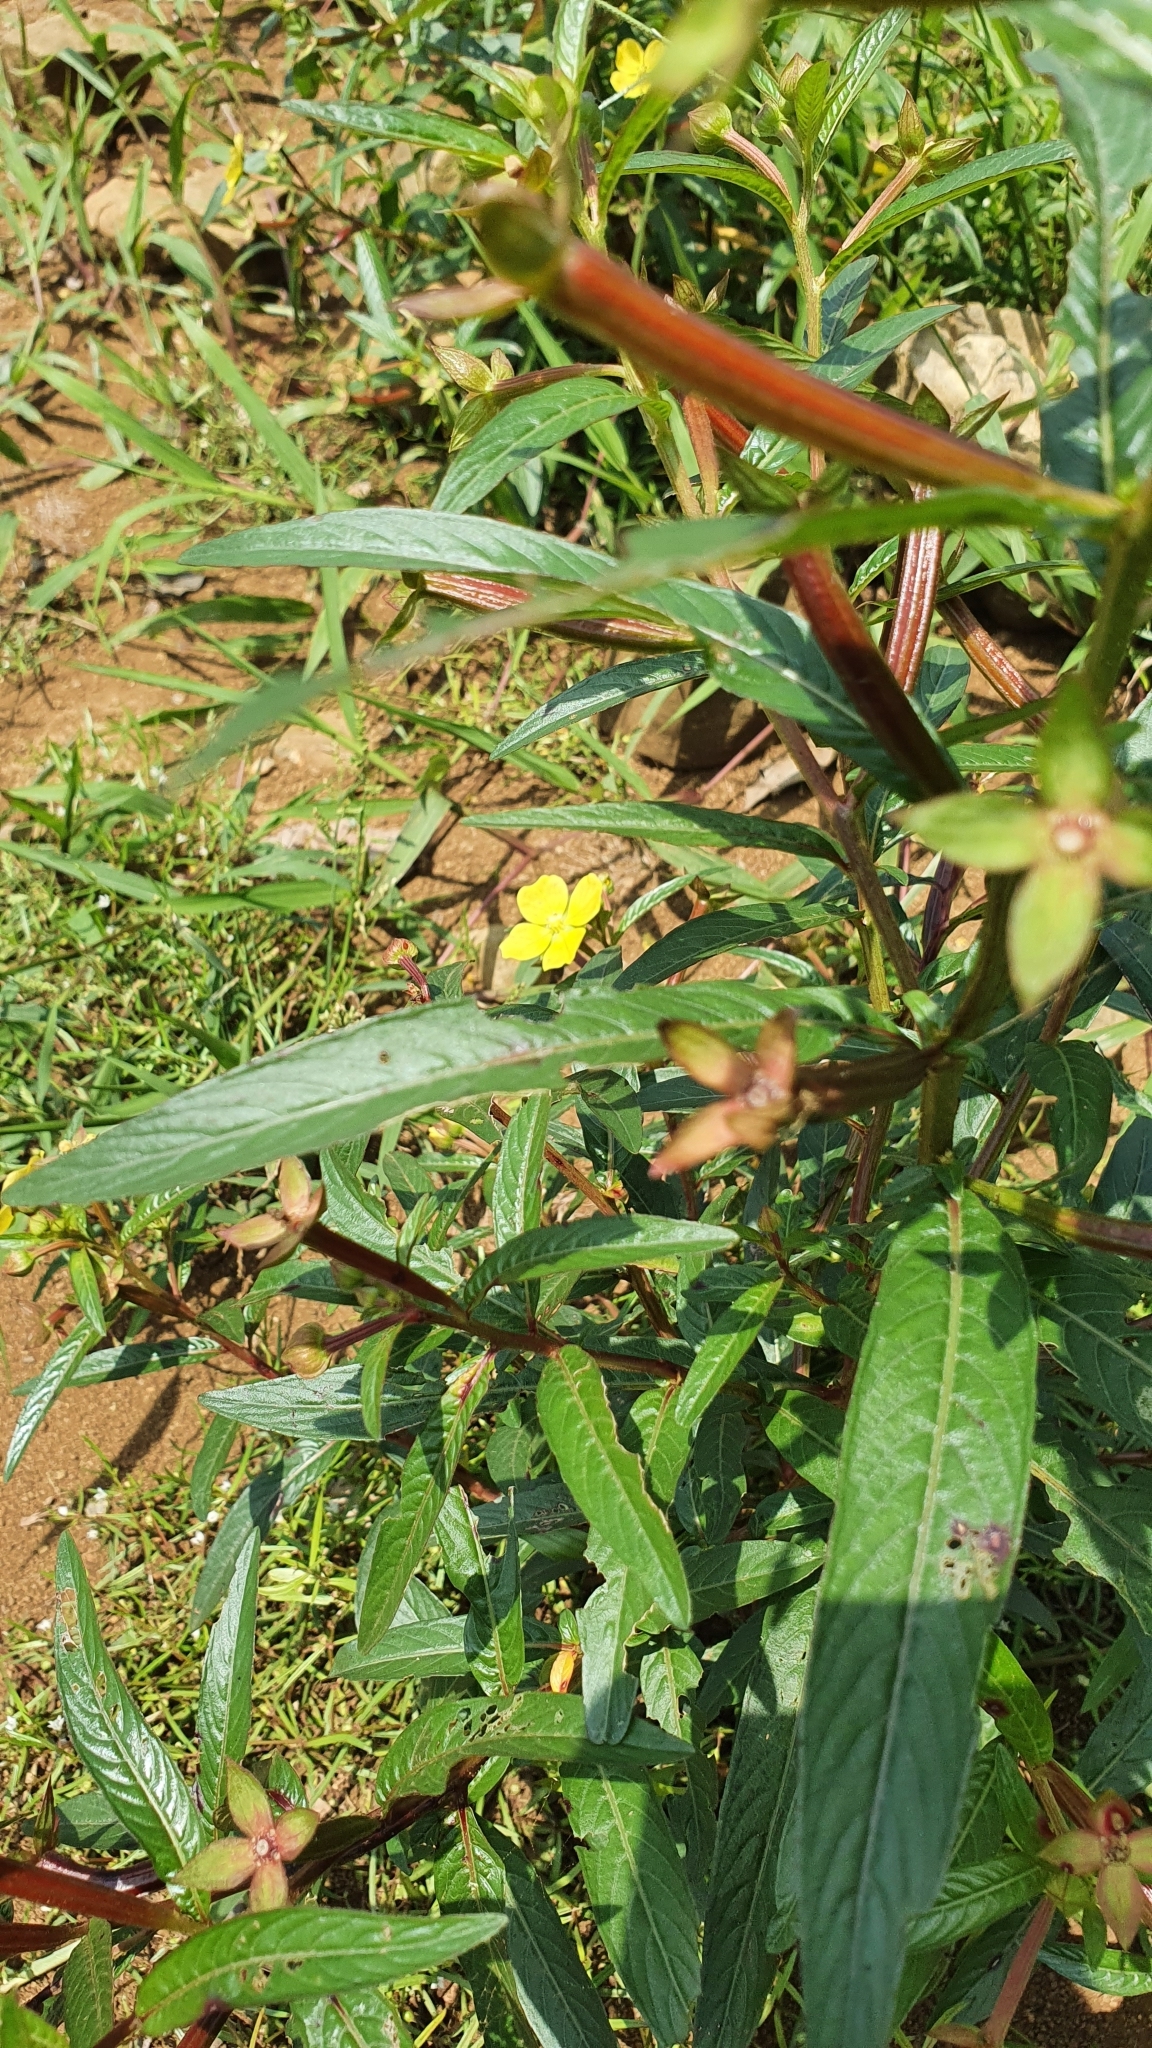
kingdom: Plantae
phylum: Tracheophyta
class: Magnoliopsida
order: Myrtales
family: Onagraceae
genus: Ludwigia
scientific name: Ludwigia octovalvis
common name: Water-primrose
